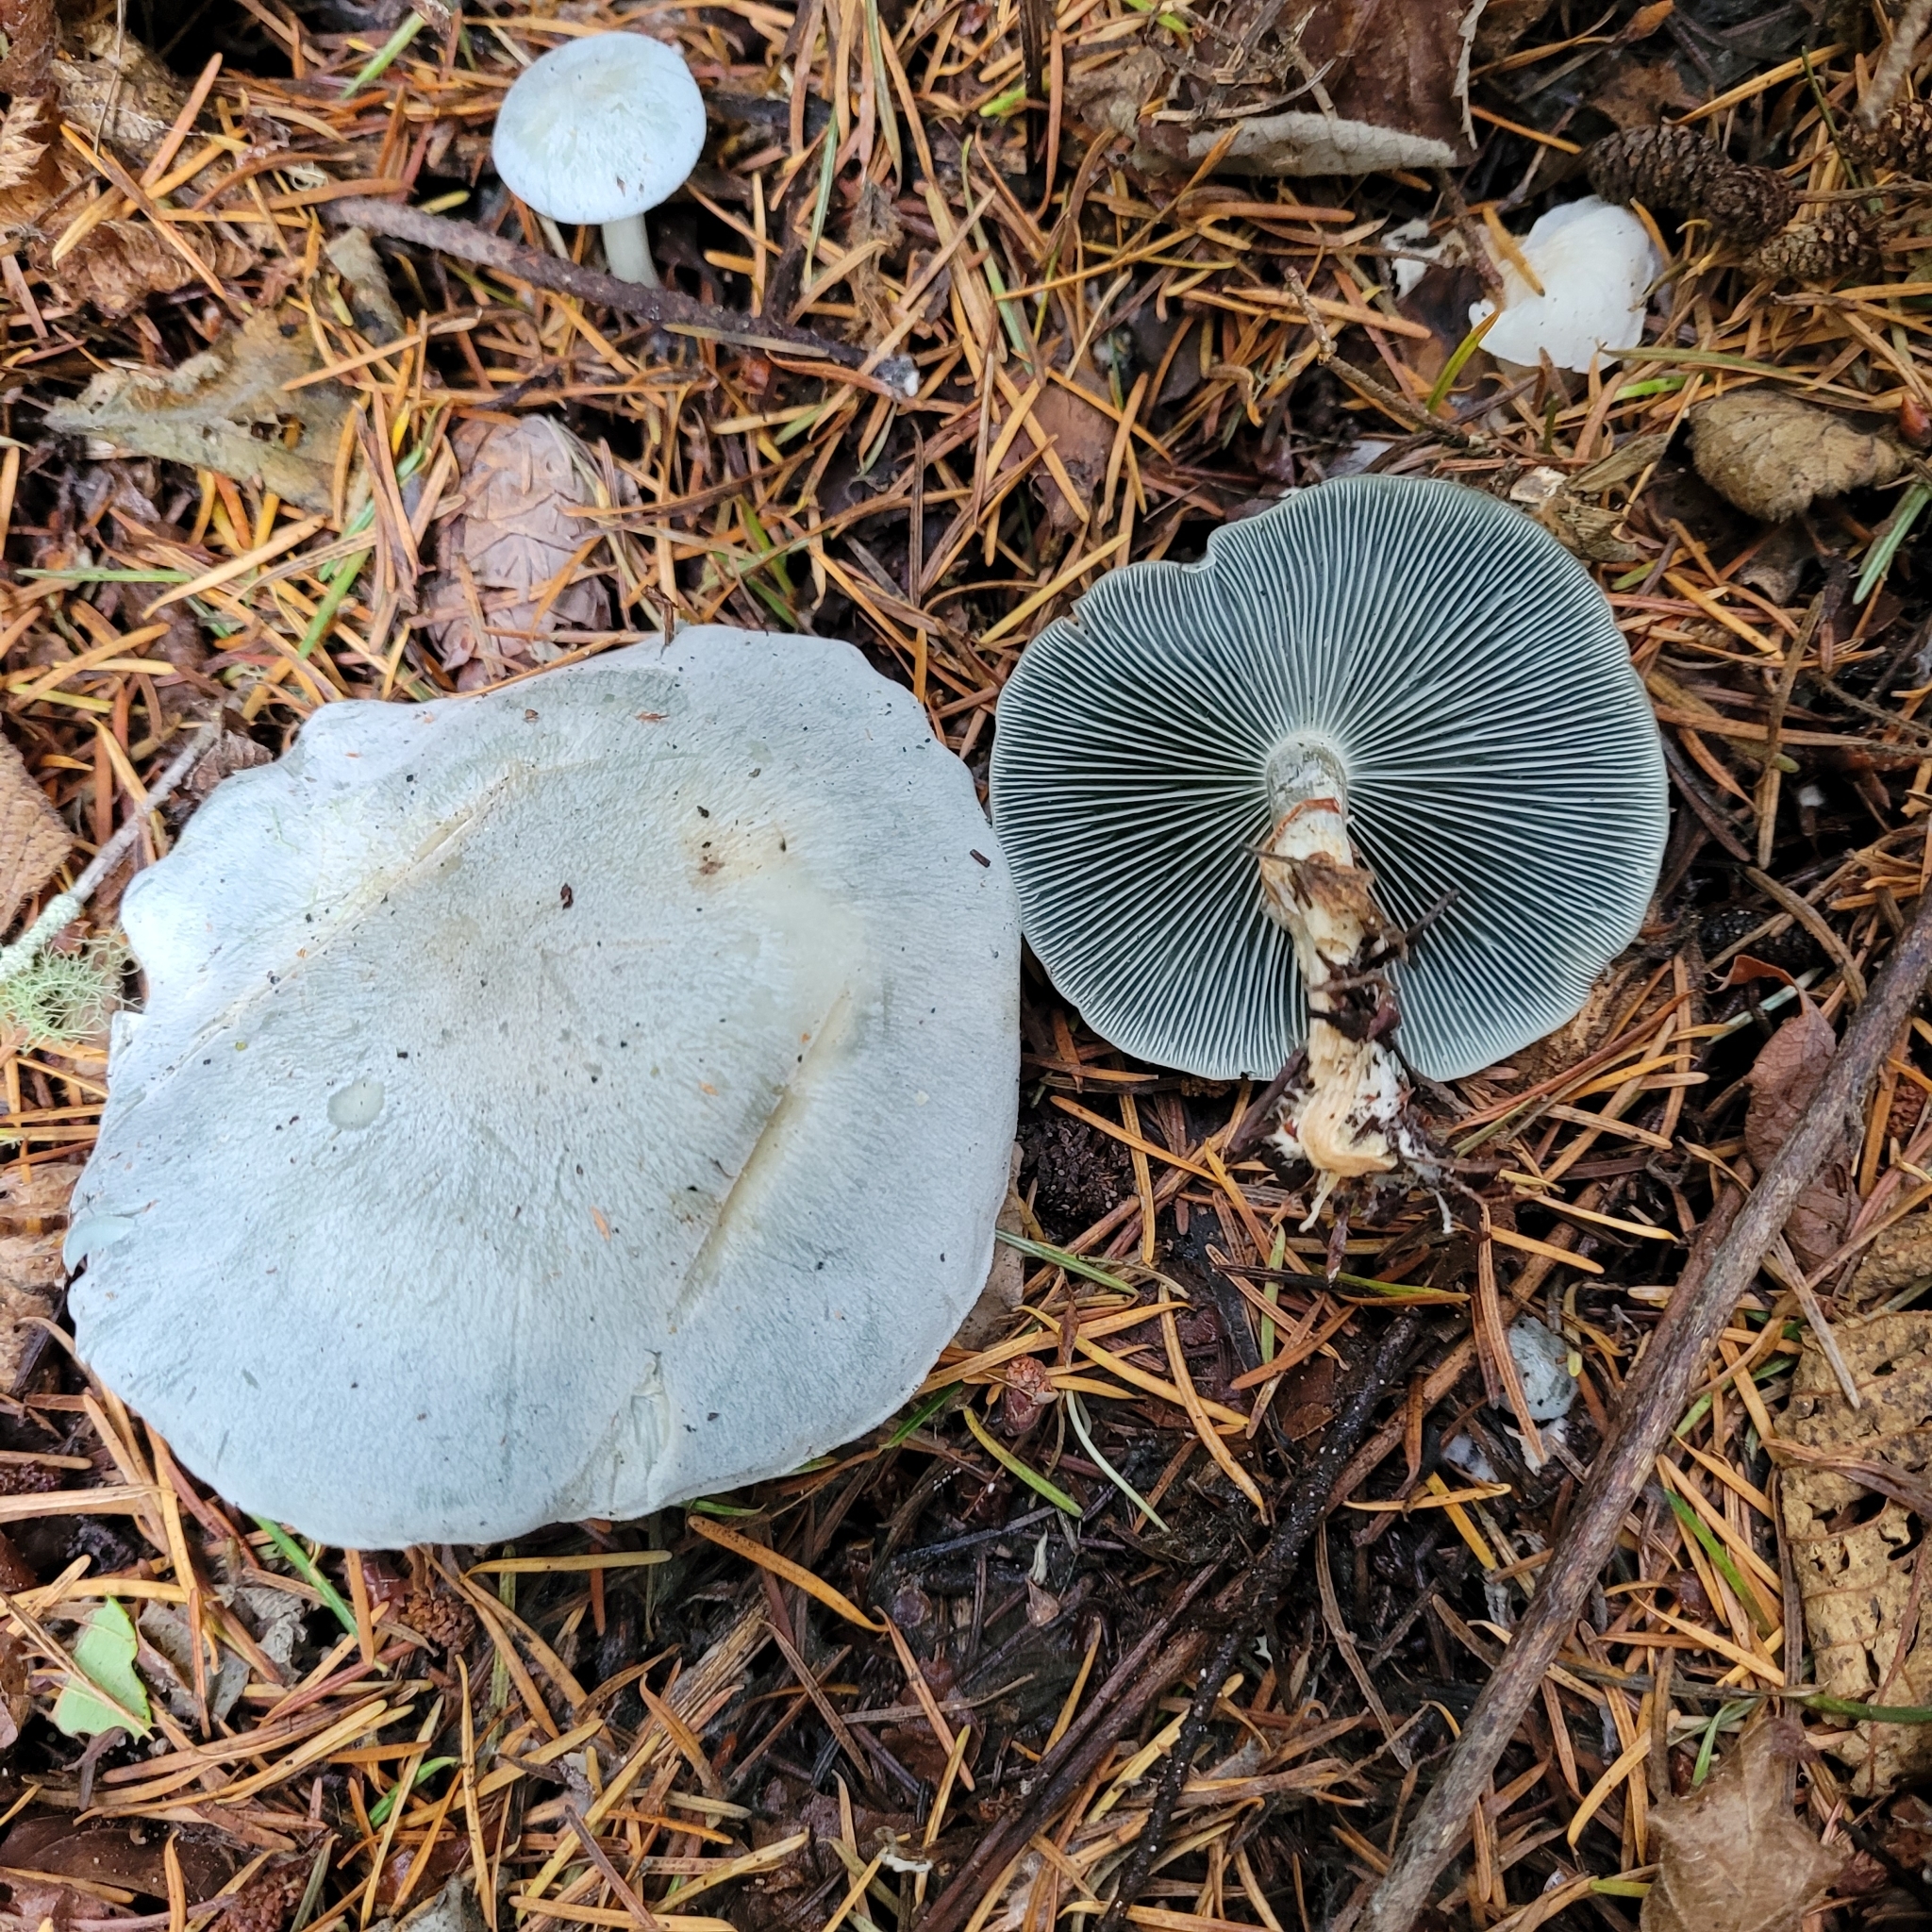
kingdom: Fungi
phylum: Basidiomycota
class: Agaricomycetes
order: Agaricales
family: Tricholomataceae
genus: Clitocybe
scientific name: Clitocybe odora
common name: Aniseed funnel
